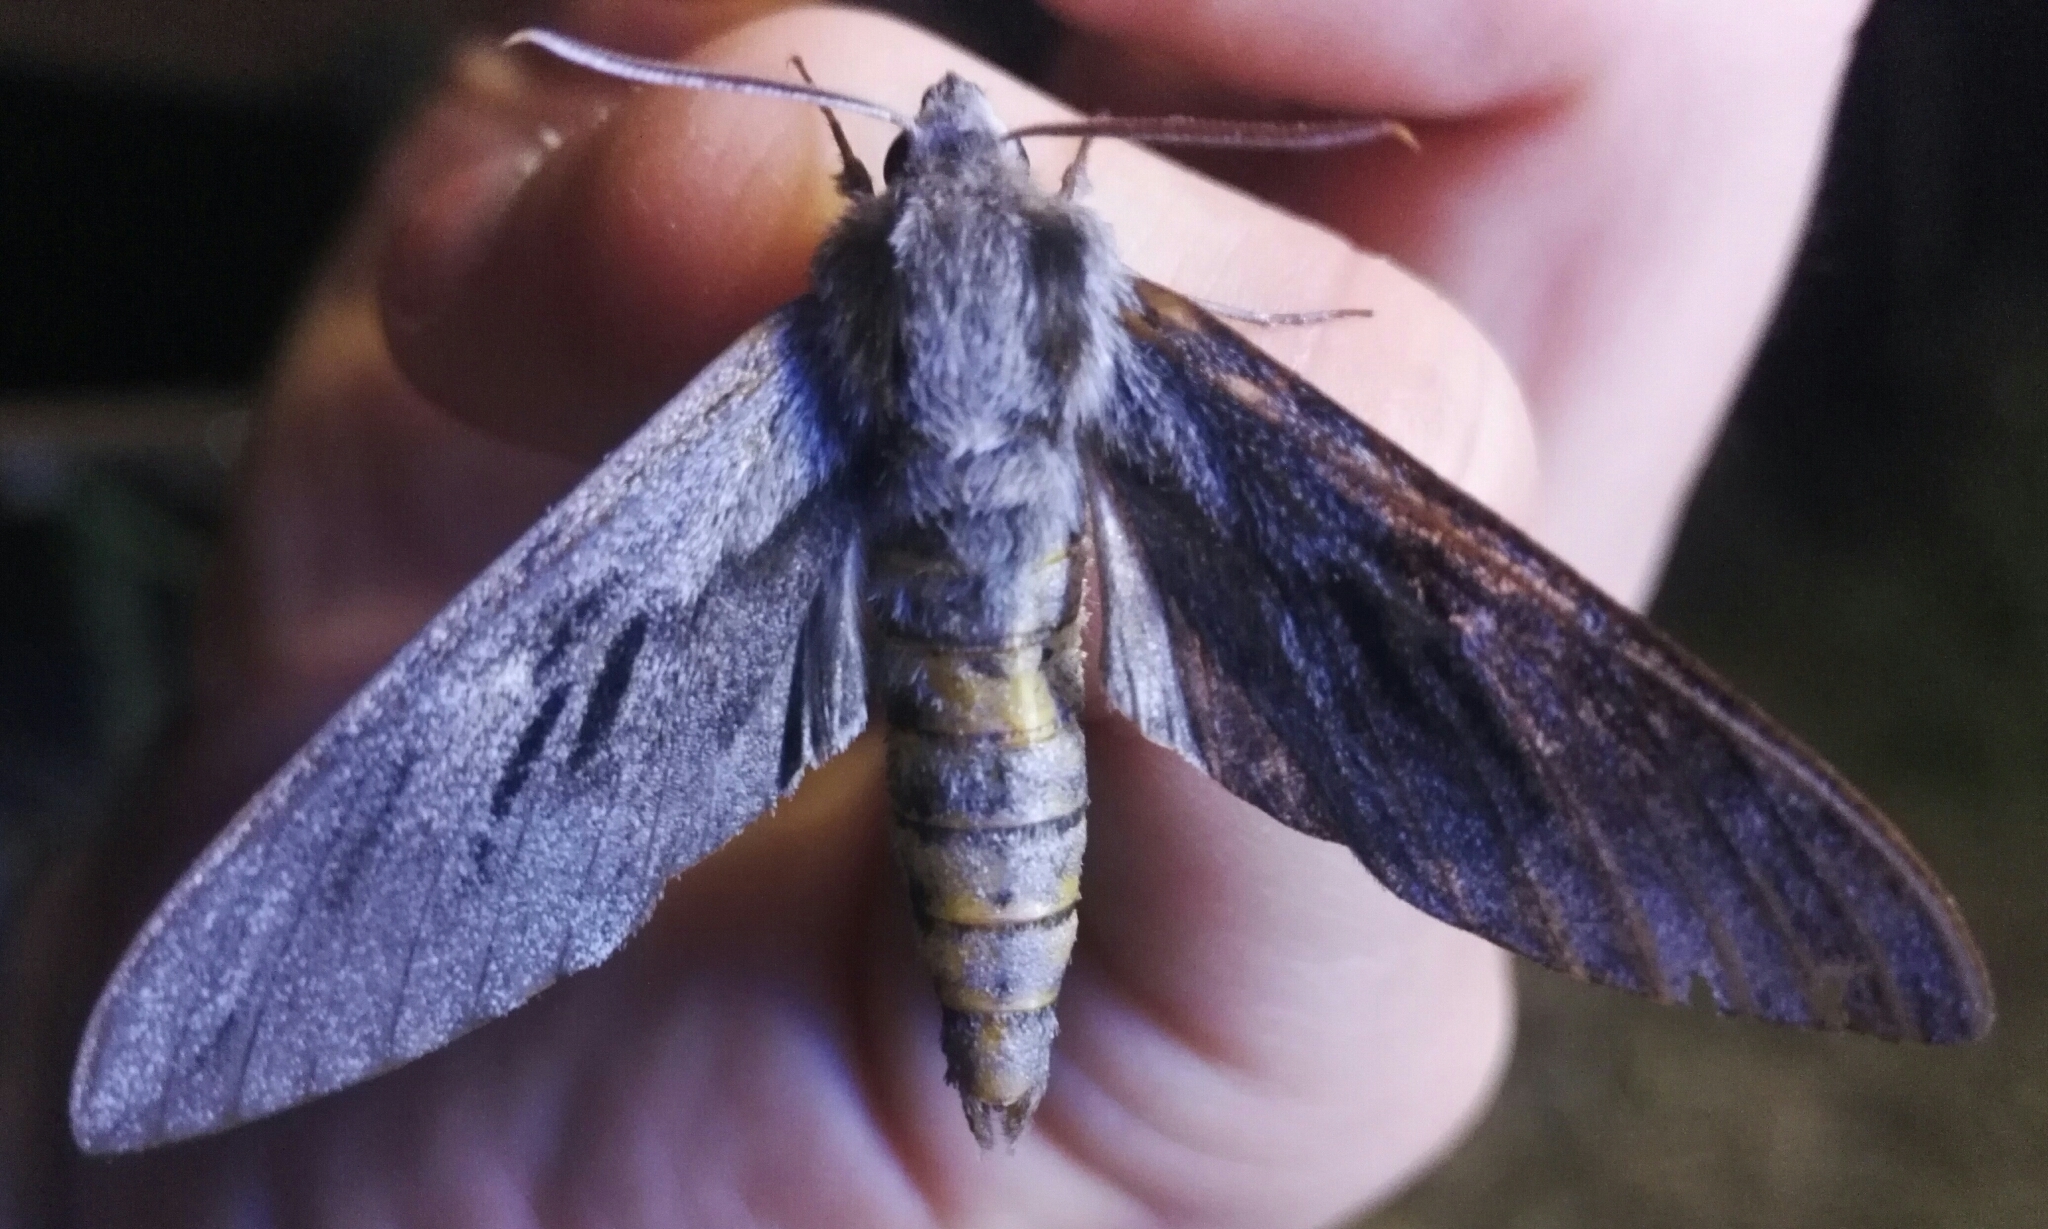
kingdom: Animalia
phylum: Arthropoda
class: Insecta
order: Lepidoptera
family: Sphingidae
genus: Sphinx
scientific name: Sphinx pinastri
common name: Pine hawk-moth
